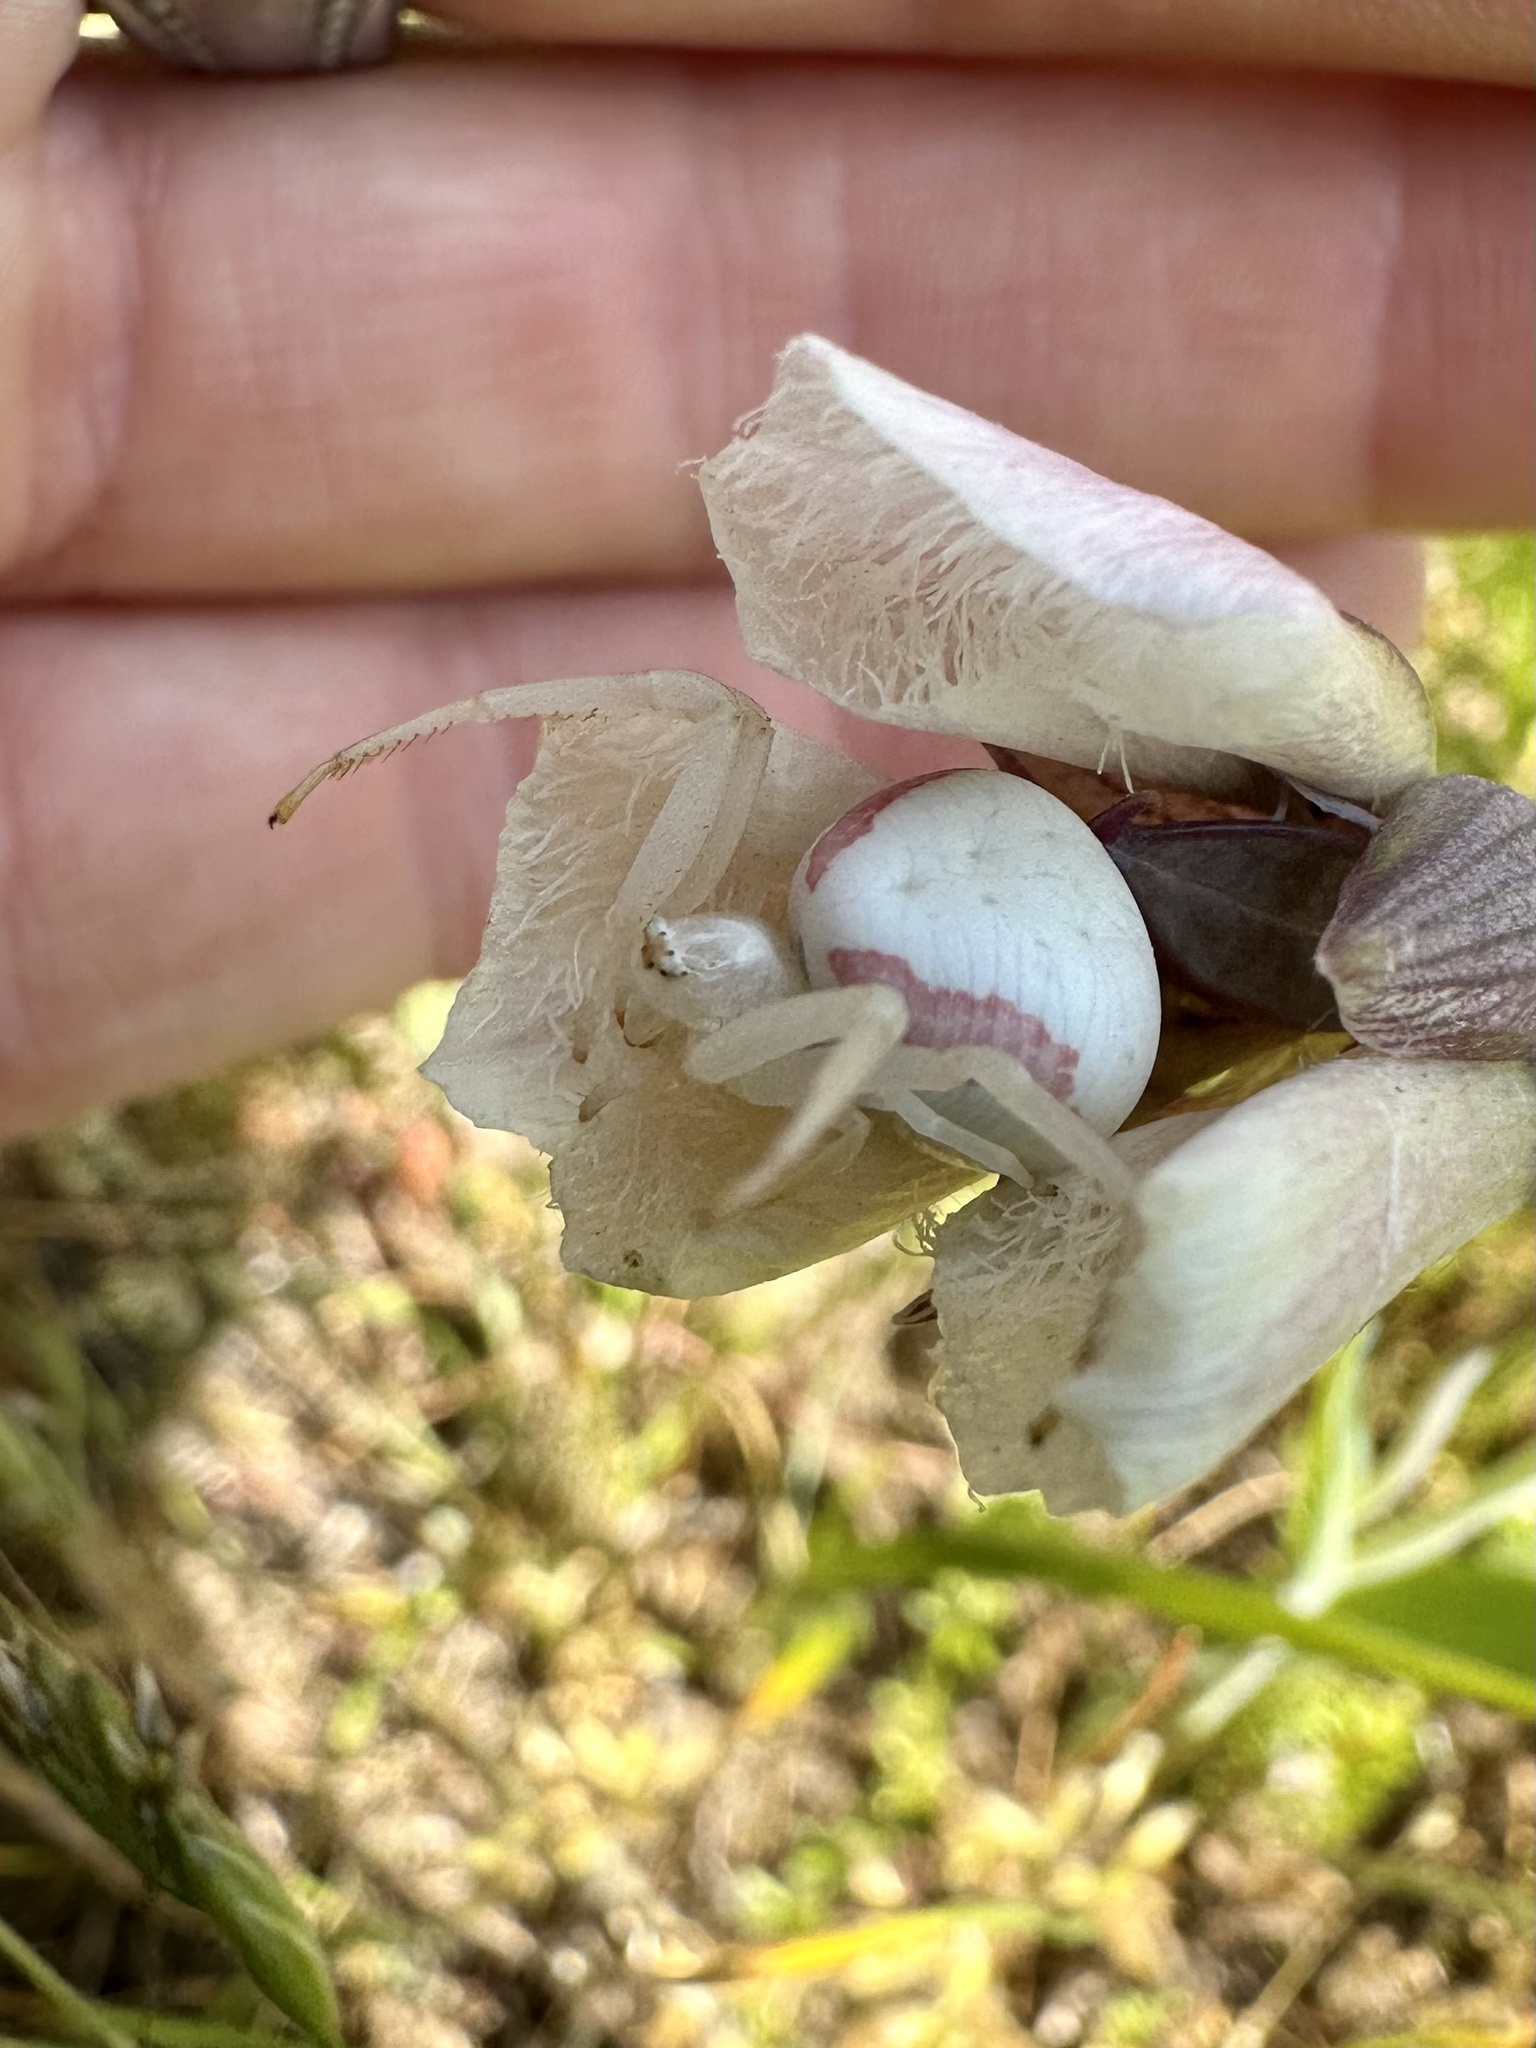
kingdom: Animalia
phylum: Arthropoda
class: Arachnida
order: Araneae
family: Thomisidae
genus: Misumena
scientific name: Misumena vatia
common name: Goldenrod crab spider
